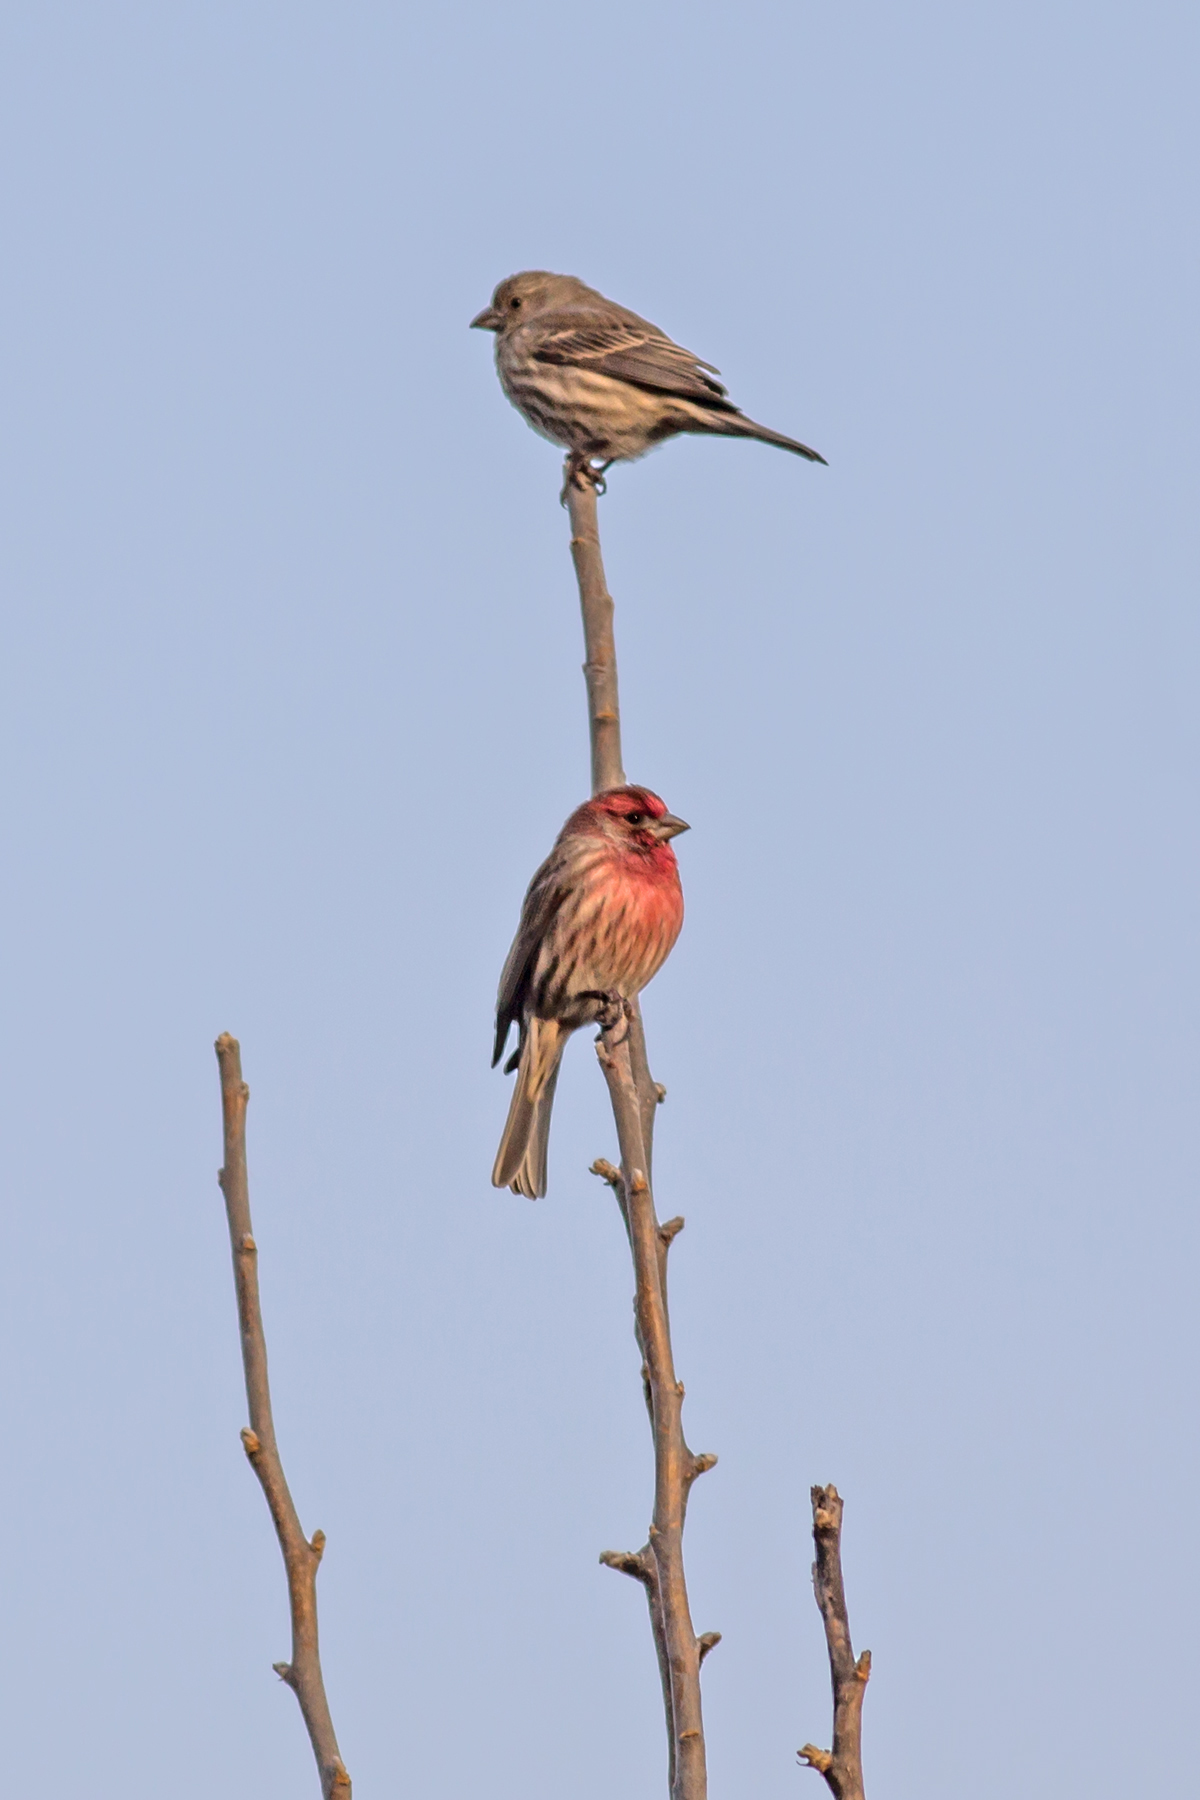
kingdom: Animalia
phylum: Chordata
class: Aves
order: Passeriformes
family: Fringillidae
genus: Haemorhous
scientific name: Haemorhous mexicanus
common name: House finch
